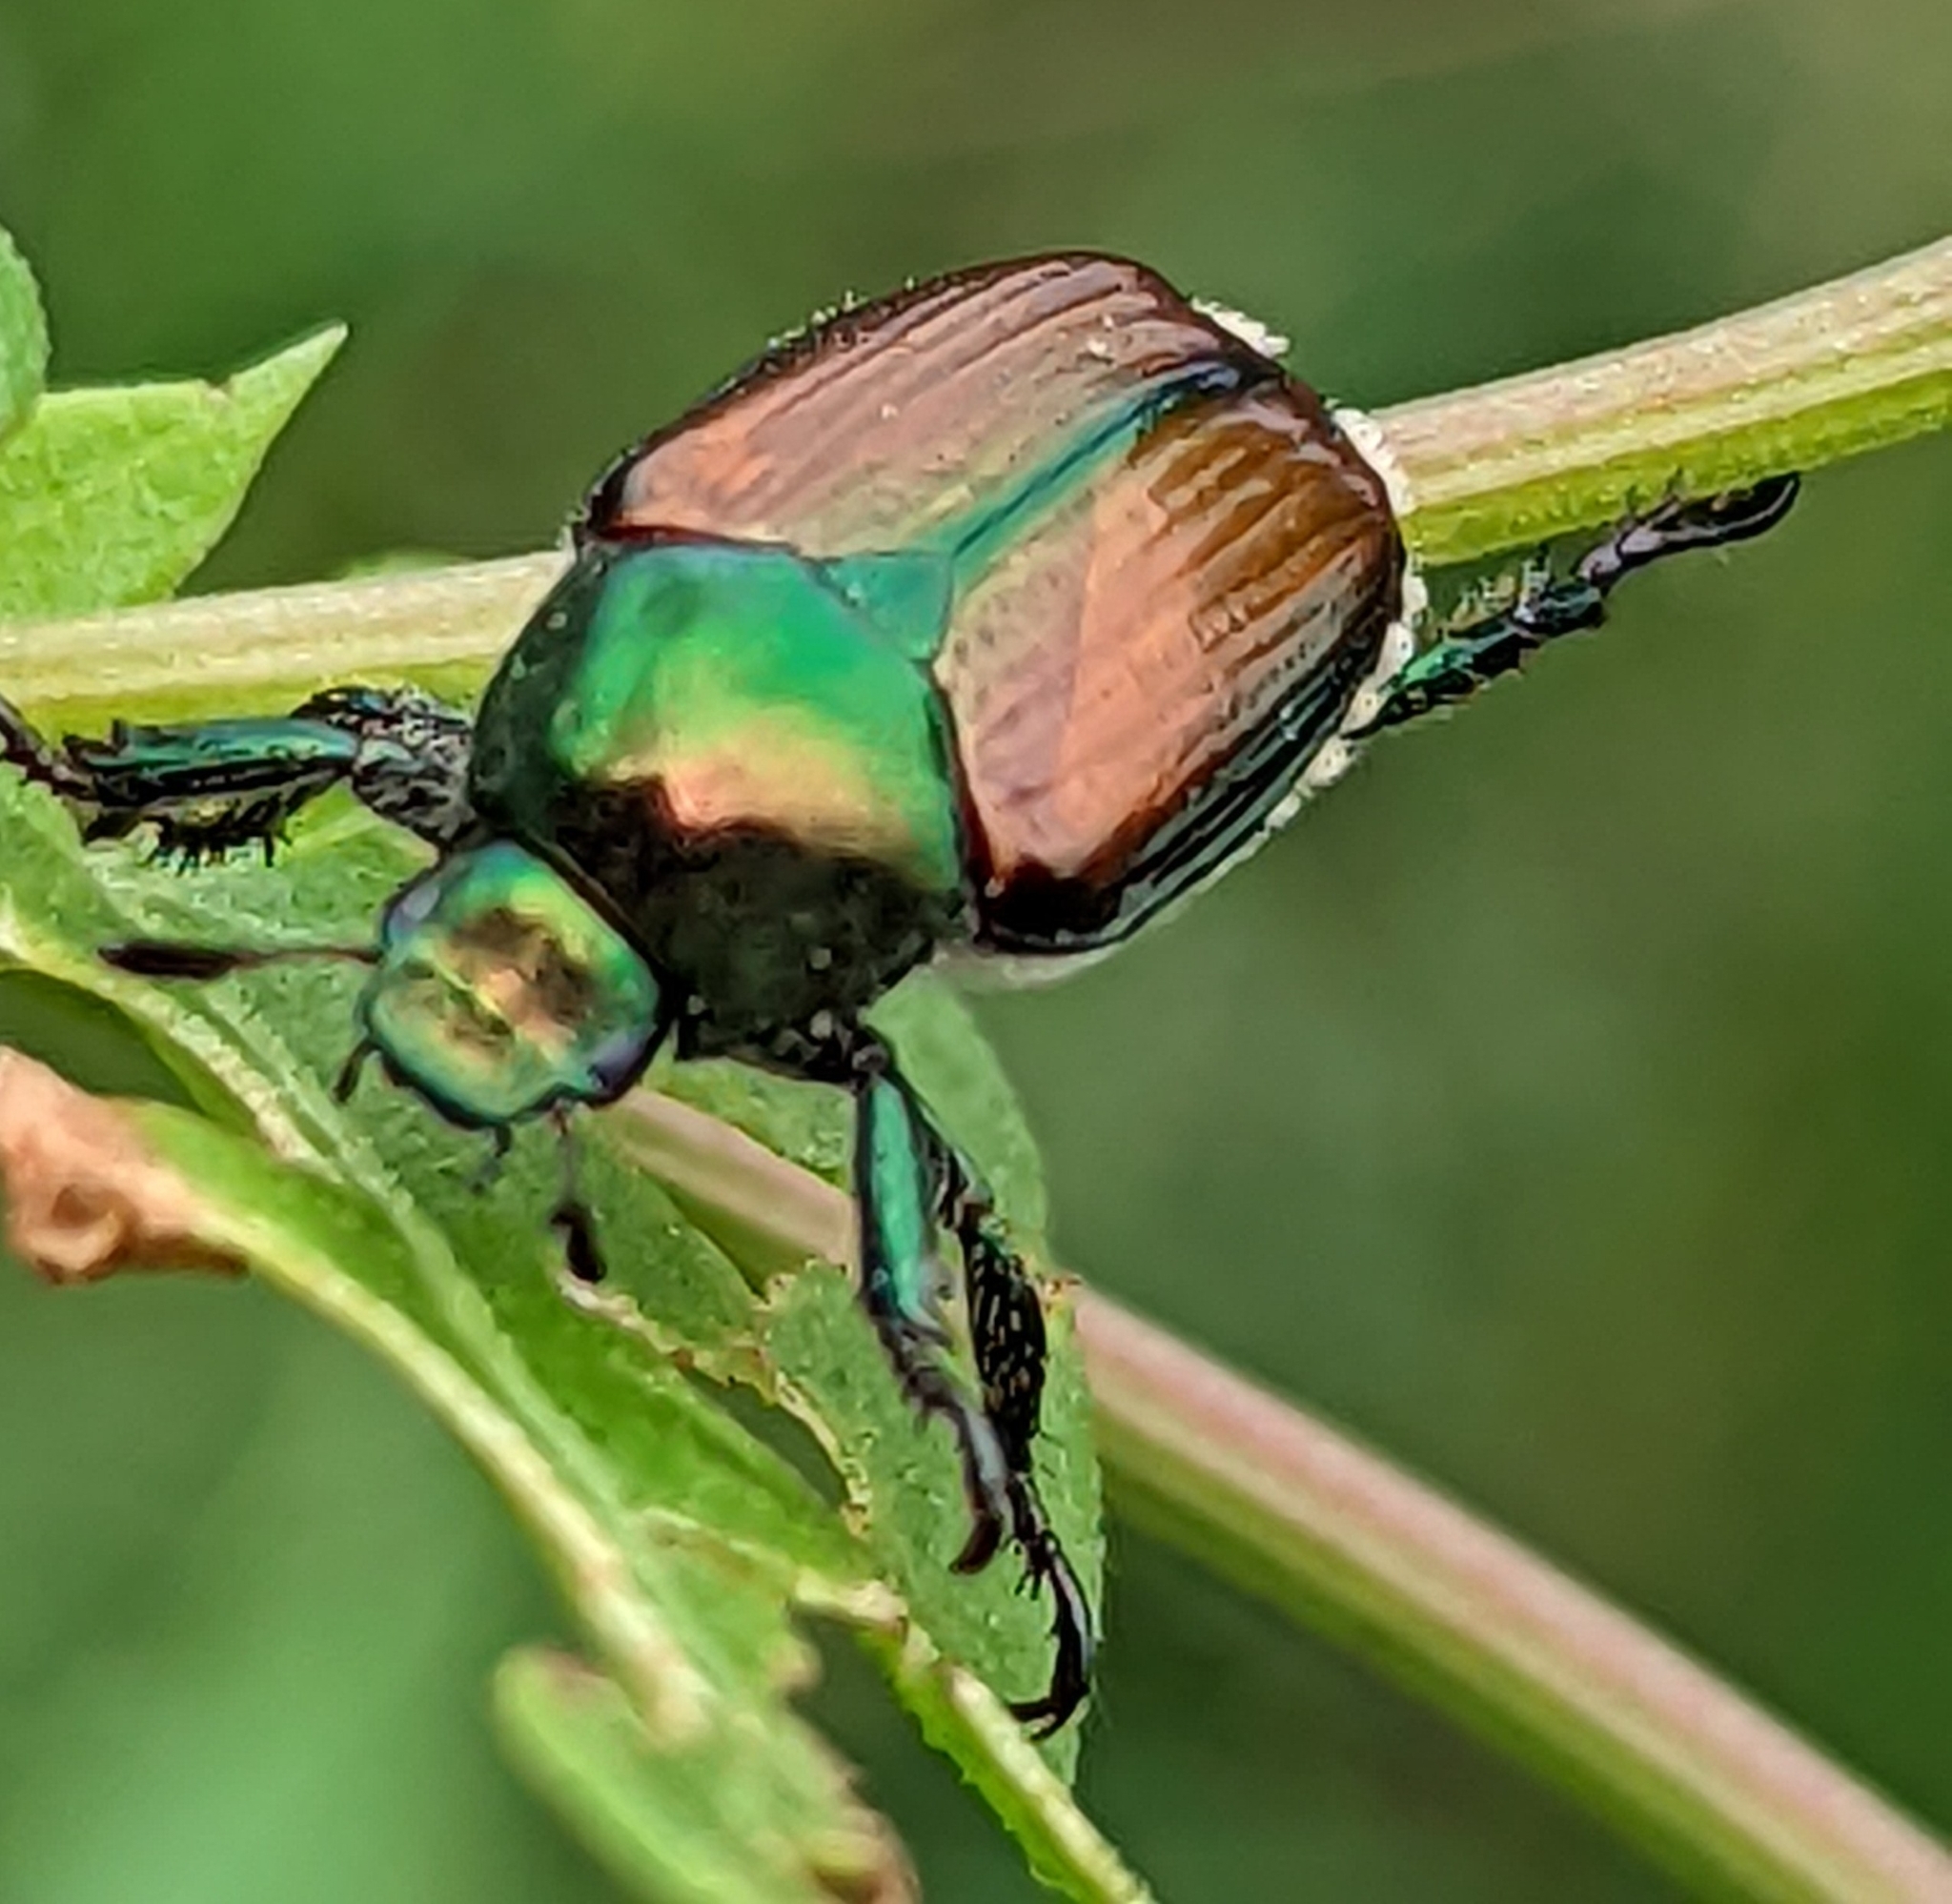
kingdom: Animalia
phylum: Arthropoda
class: Insecta
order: Coleoptera
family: Scarabaeidae
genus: Popillia
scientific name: Popillia japonica
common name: Japanese beetle
